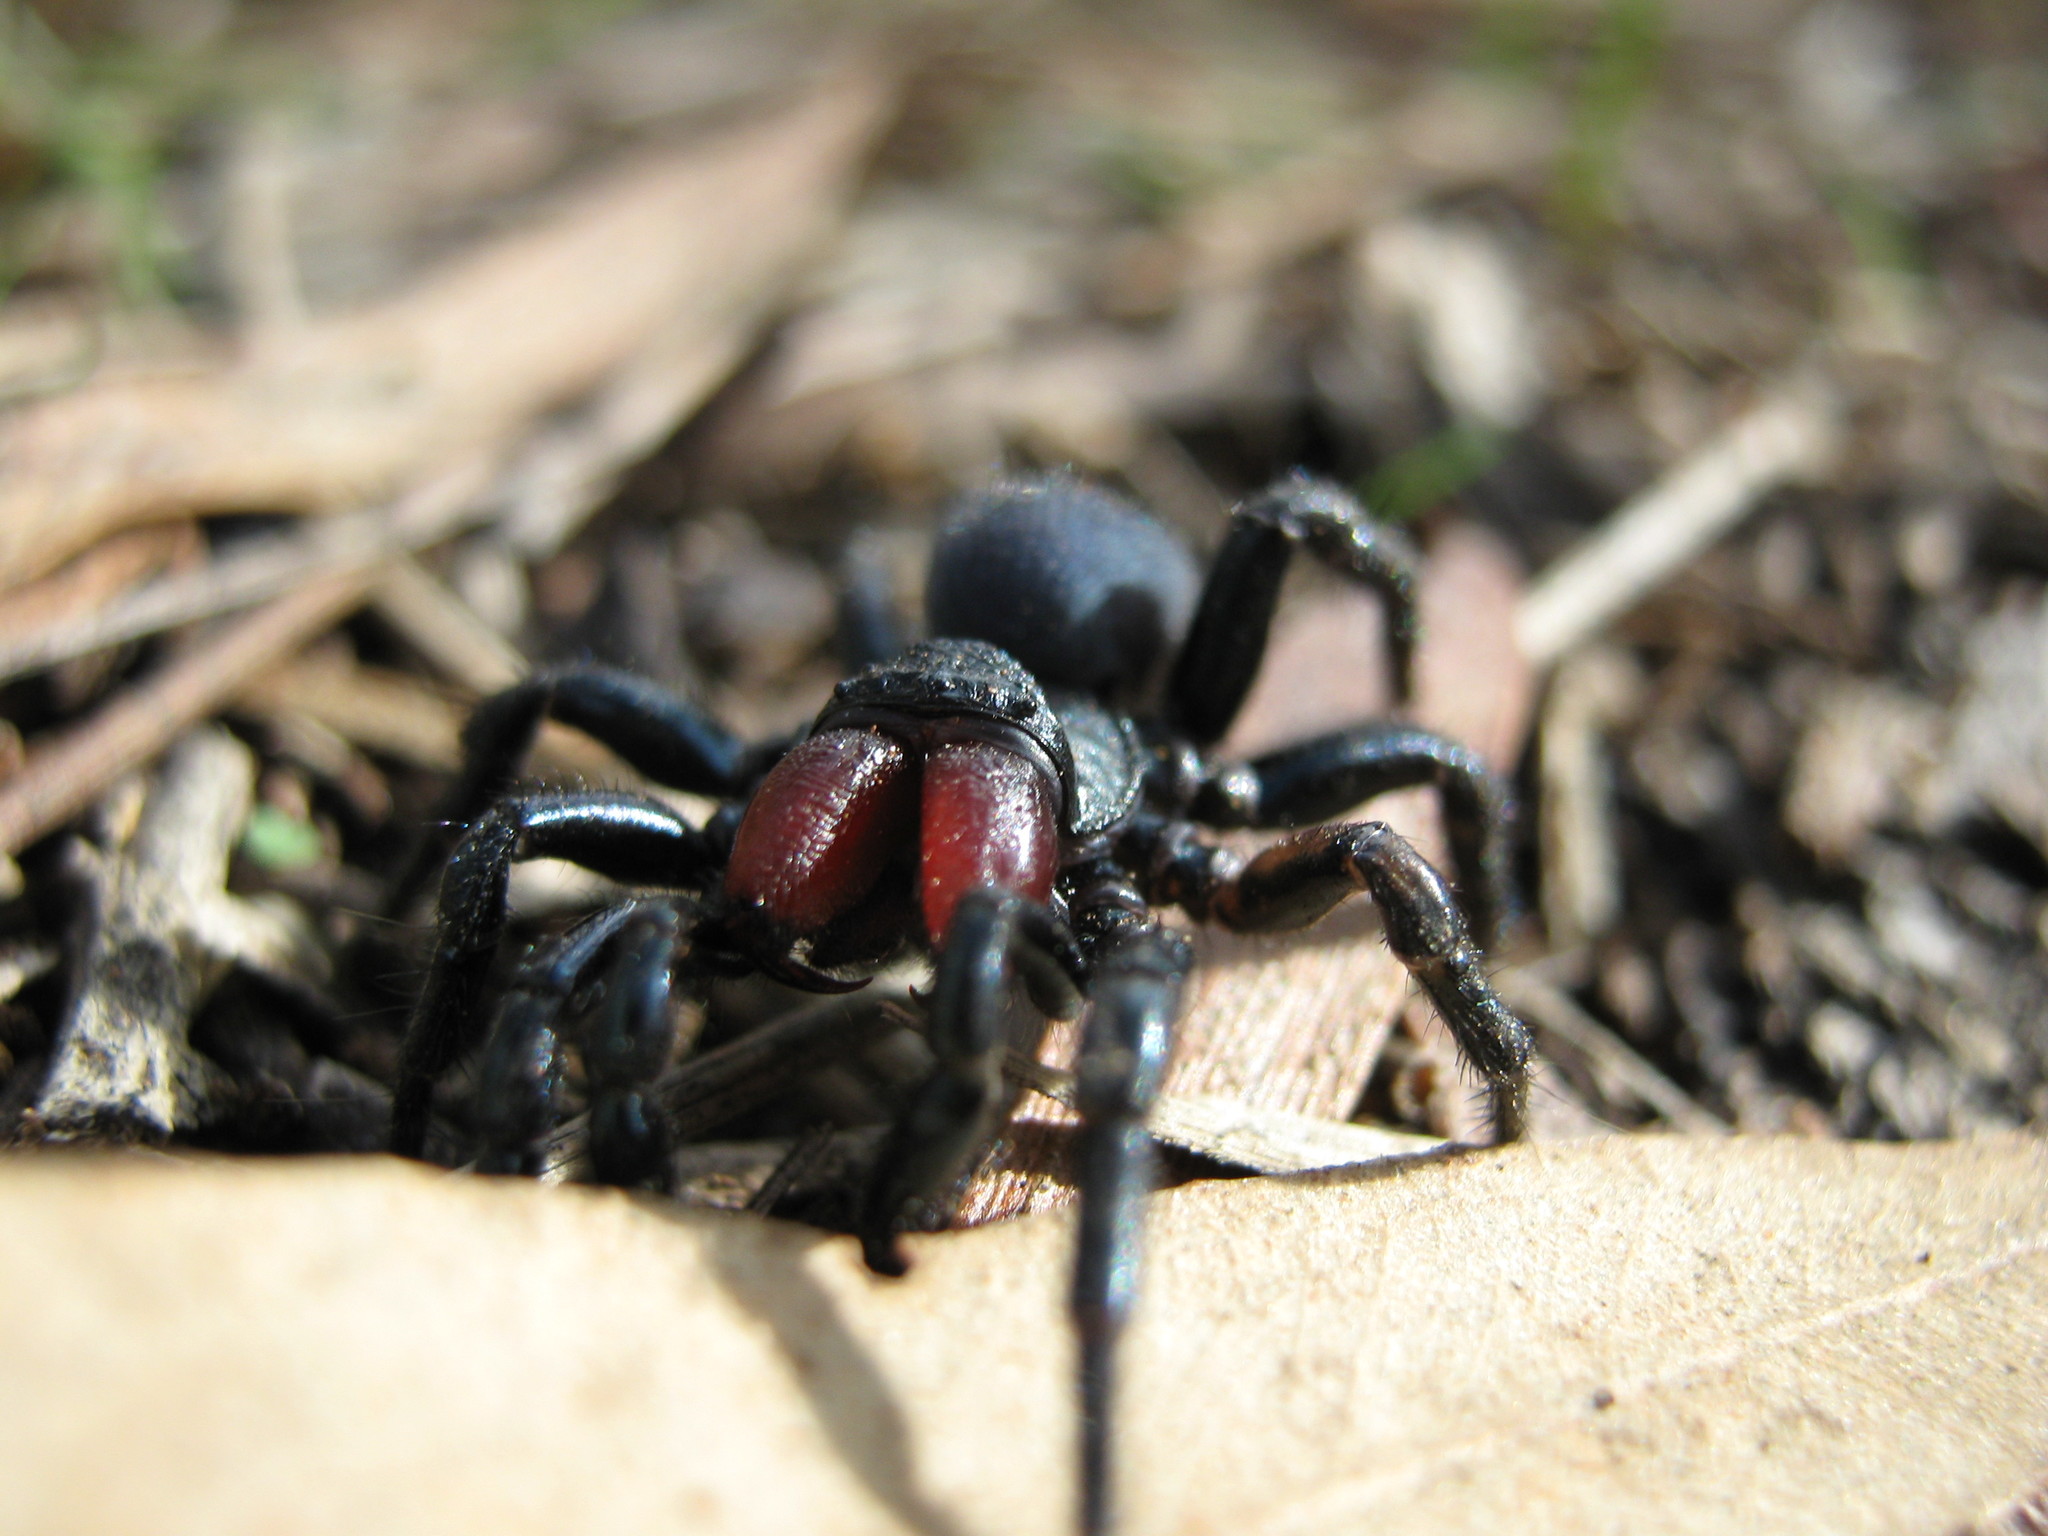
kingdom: Animalia
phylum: Arthropoda
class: Arachnida
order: Araneae
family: Actinopodidae
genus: Missulena
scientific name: Missulena hoggi
